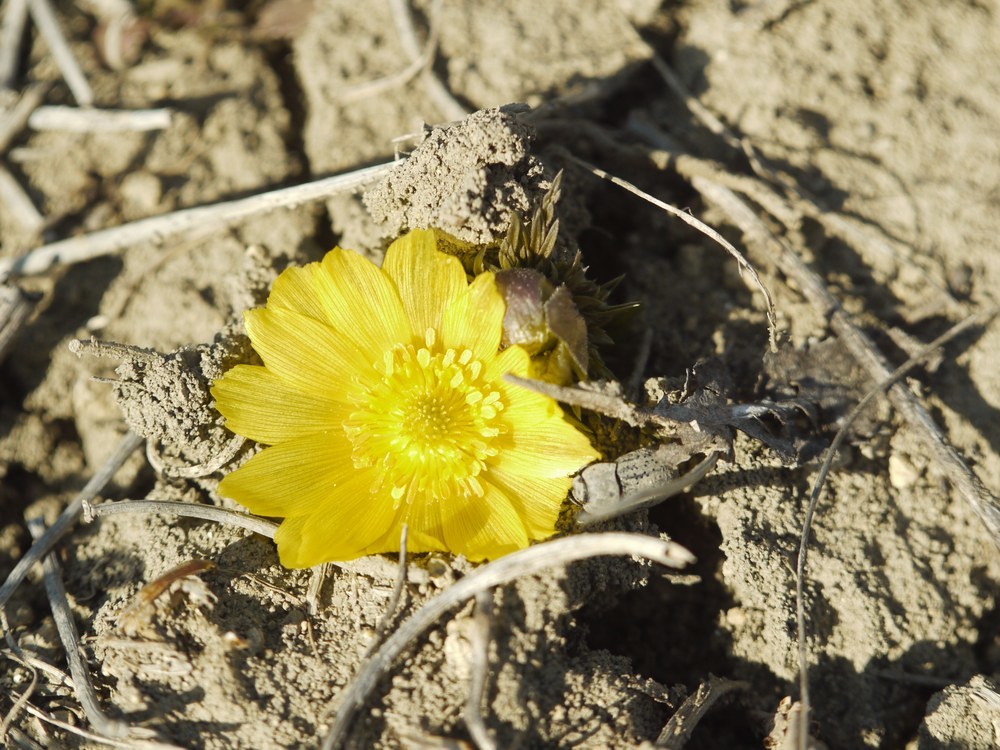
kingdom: Plantae
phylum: Tracheophyta
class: Magnoliopsida
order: Ranunculales
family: Ranunculaceae
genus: Adonis
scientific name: Adonis vernalis
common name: Yellow pheasants-eye
